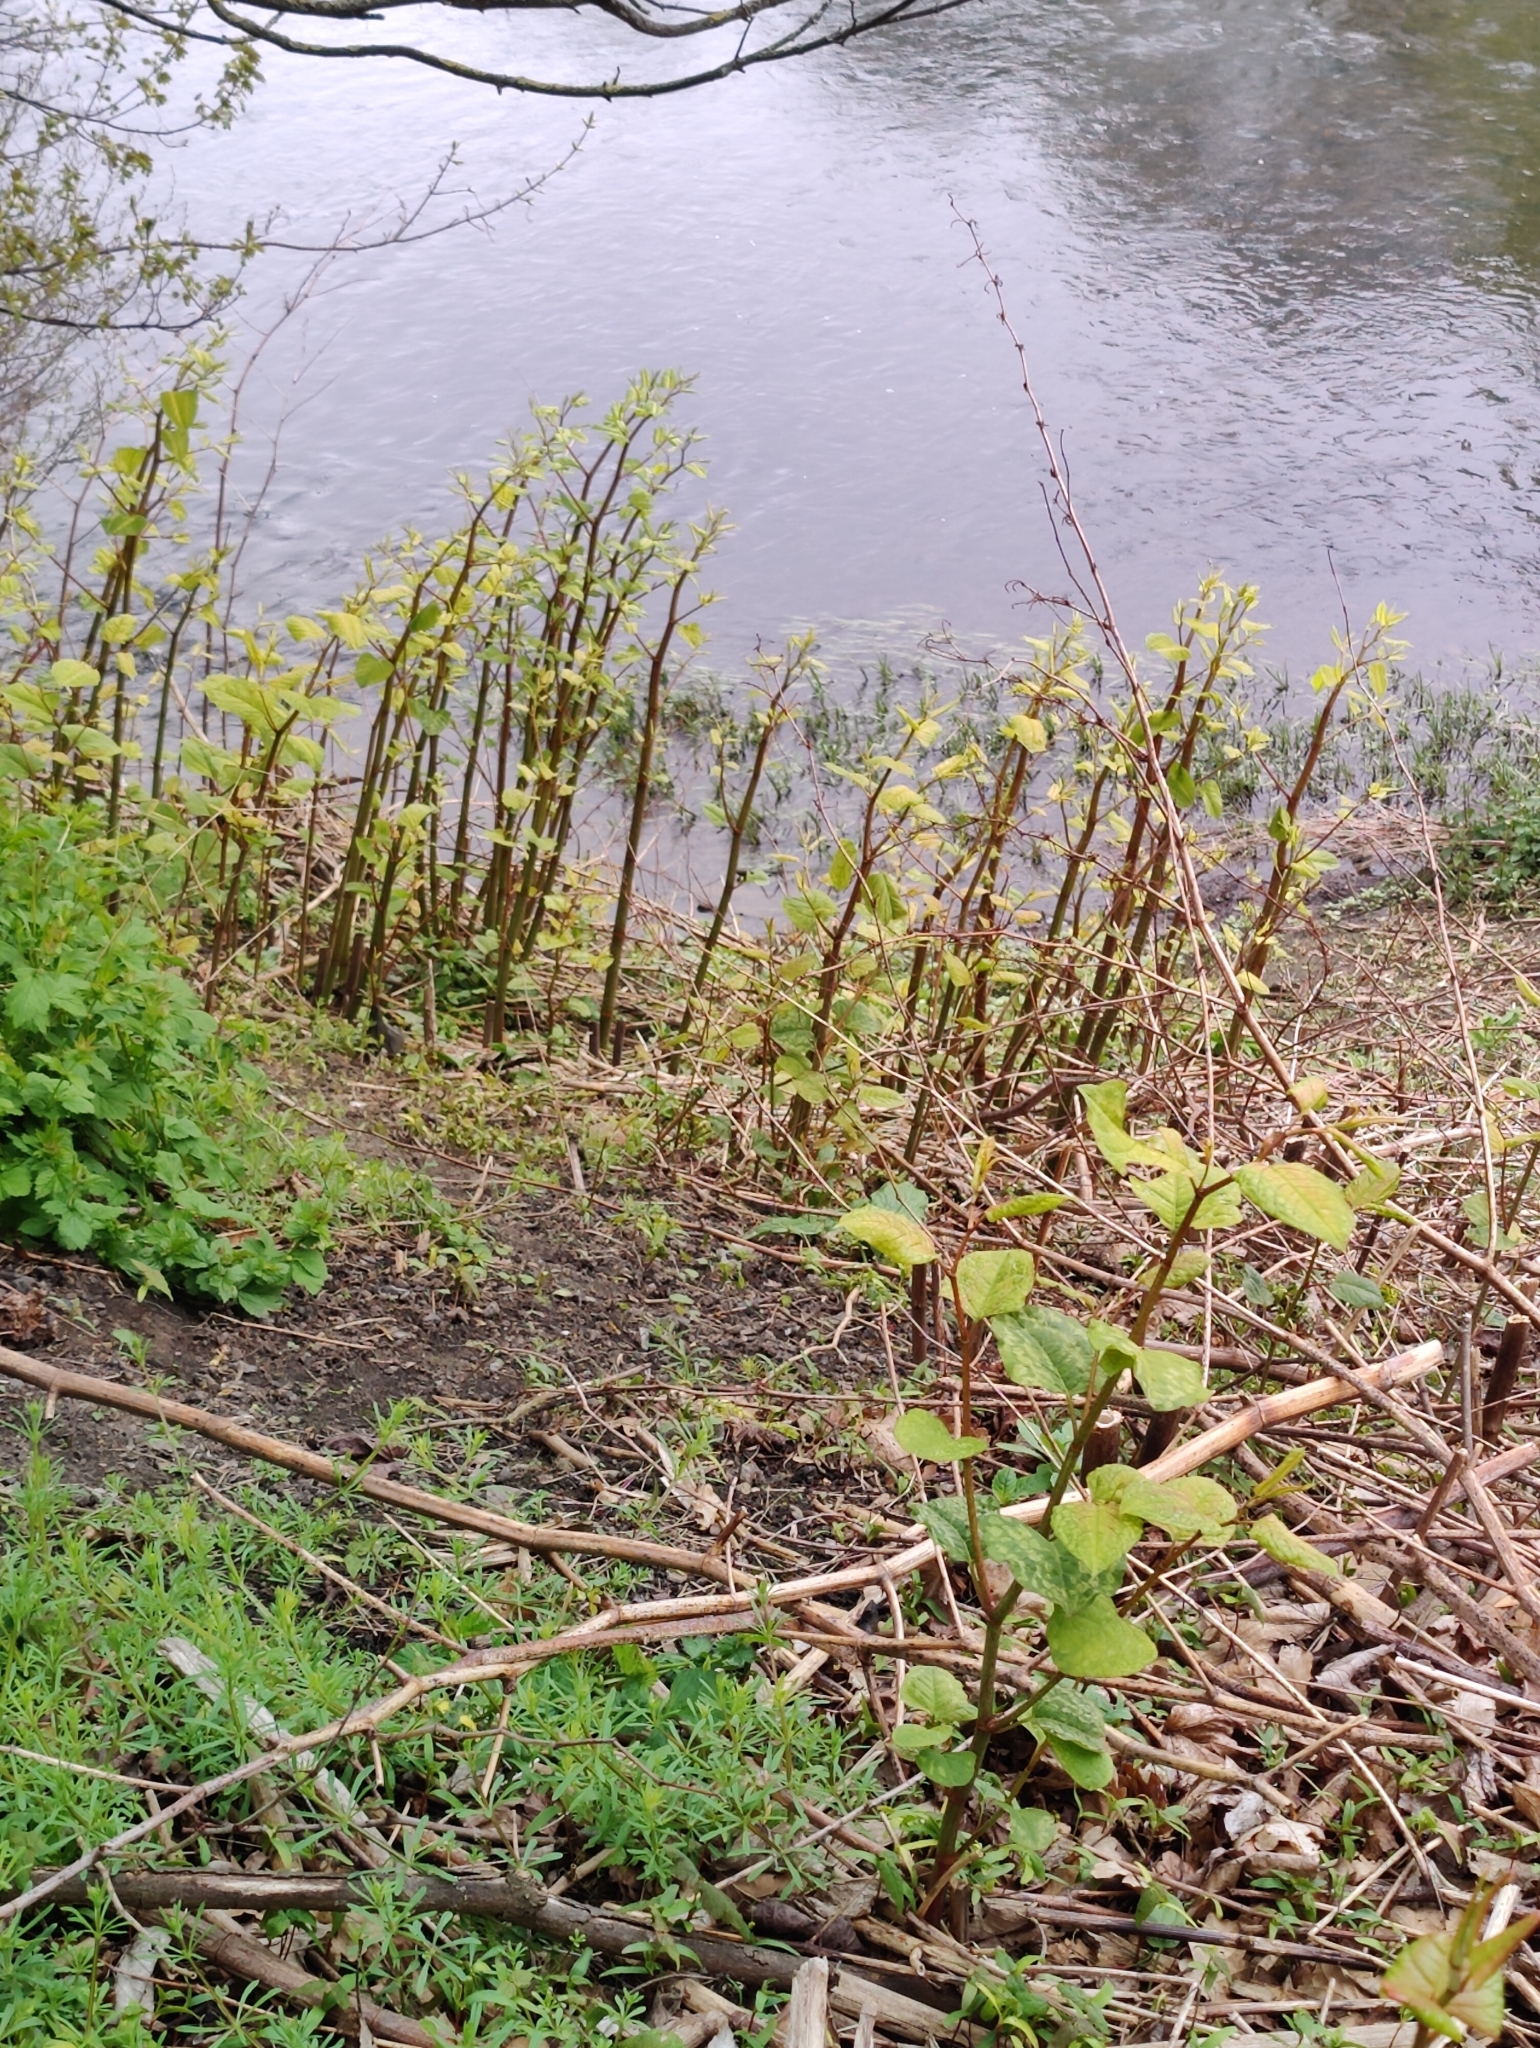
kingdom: Plantae
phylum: Tracheophyta
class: Magnoliopsida
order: Caryophyllales
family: Polygonaceae
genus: Reynoutria
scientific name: Reynoutria japonica
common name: Japanese knotweed
